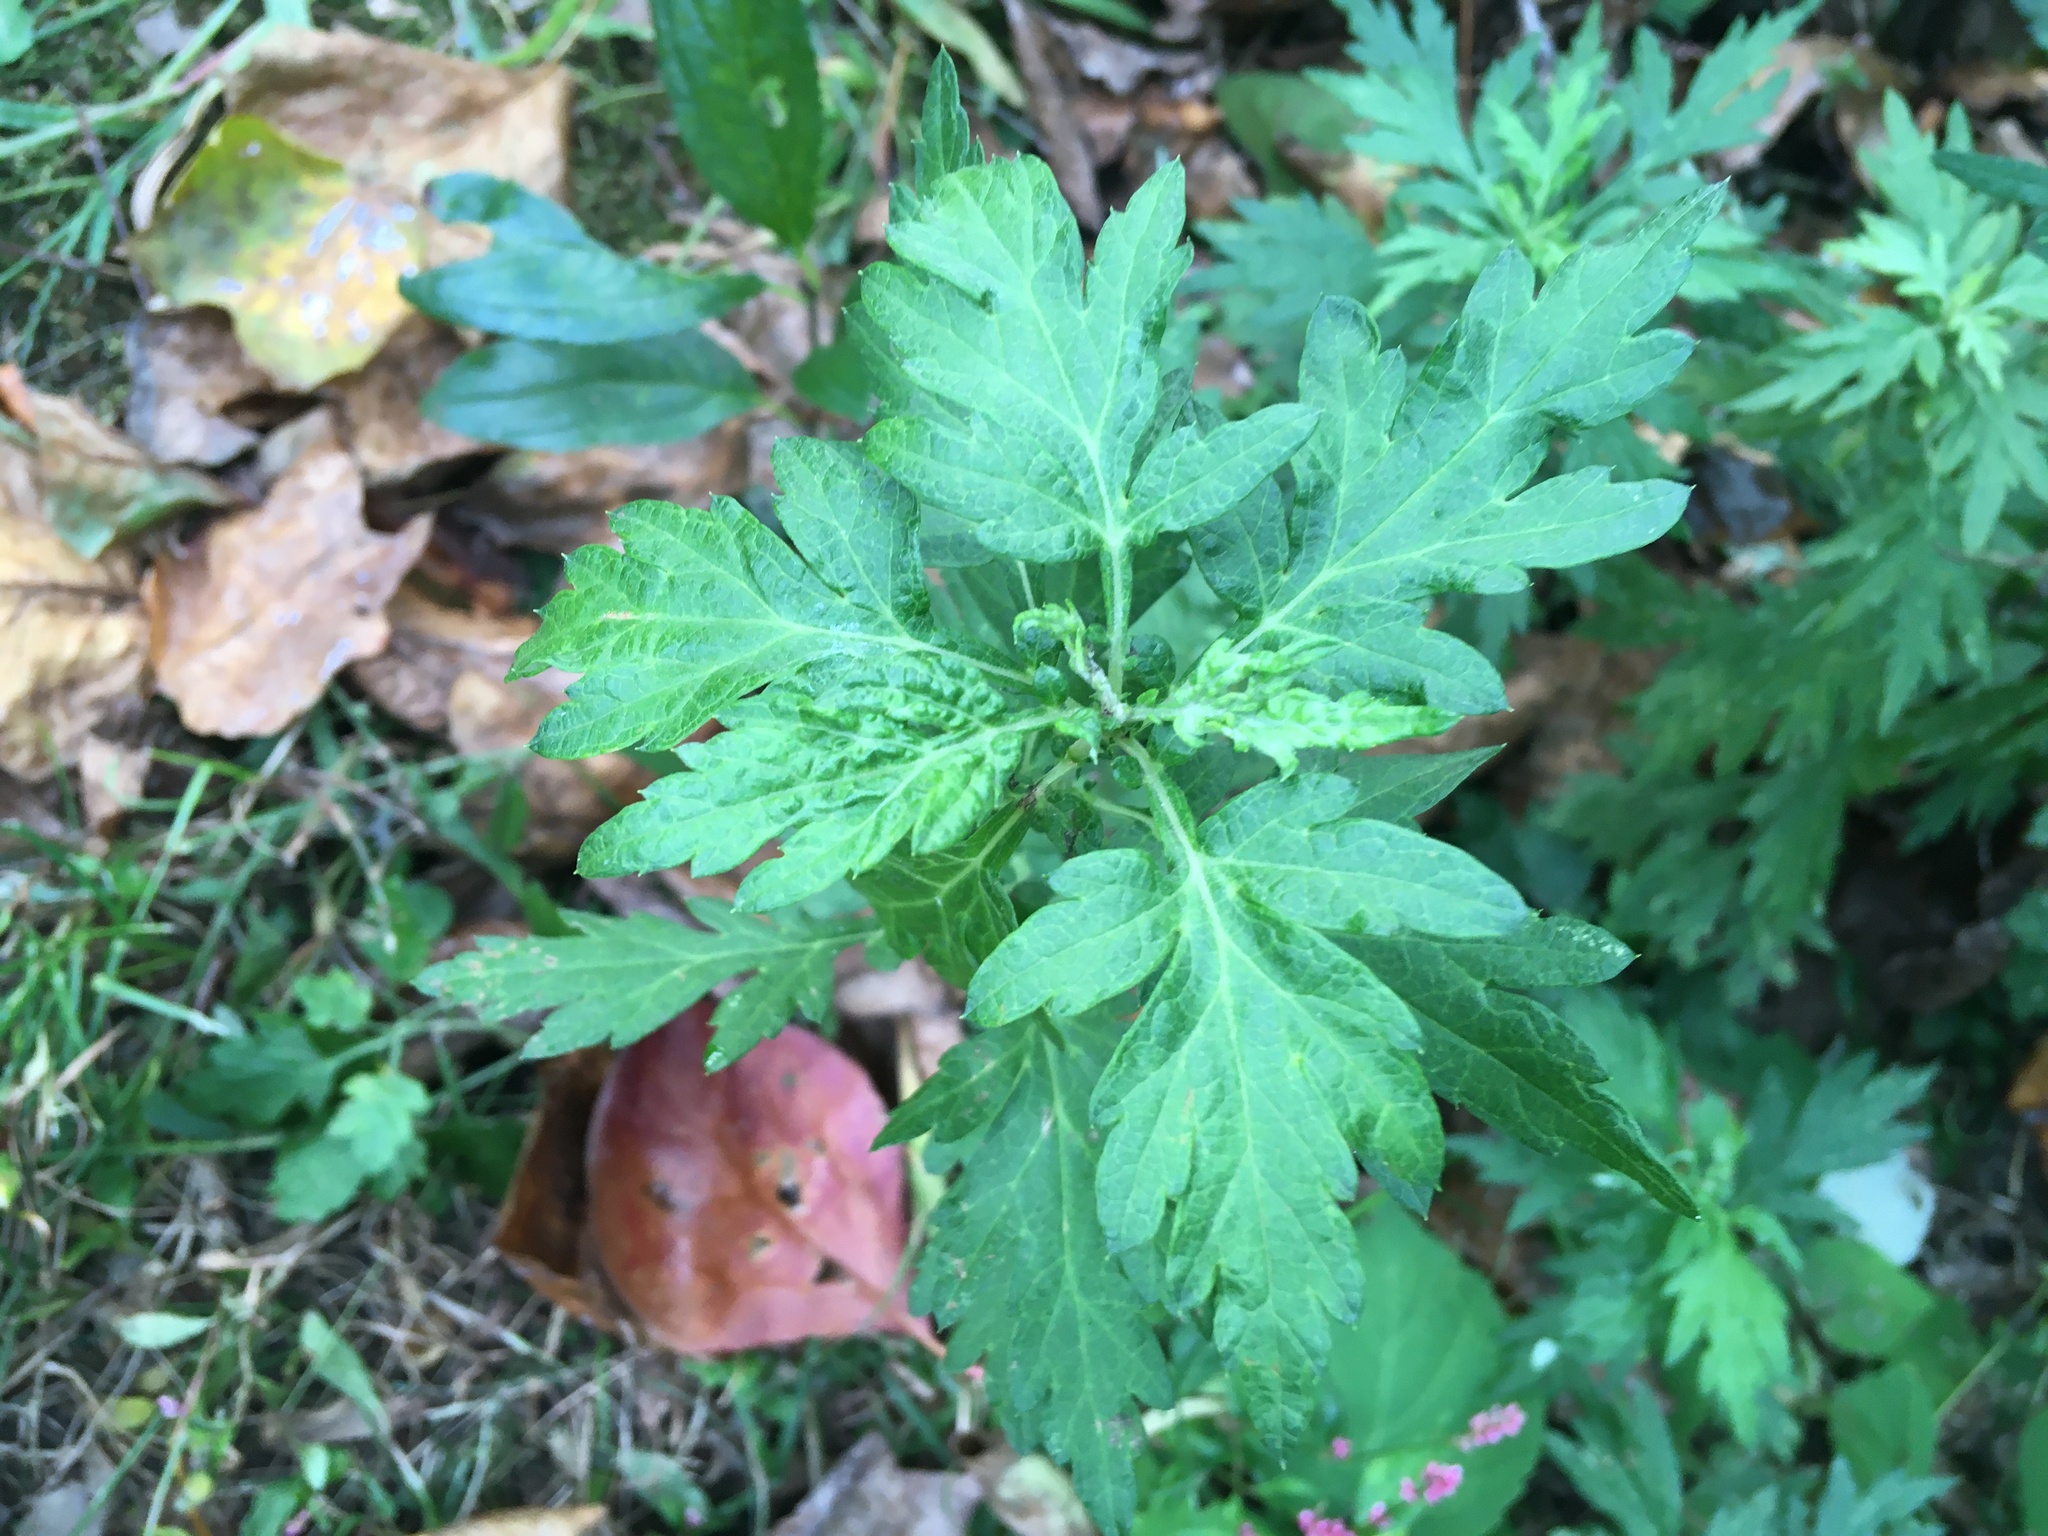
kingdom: Plantae
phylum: Tracheophyta
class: Magnoliopsida
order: Asterales
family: Asteraceae
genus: Artemisia
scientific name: Artemisia vulgaris
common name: Mugwort
